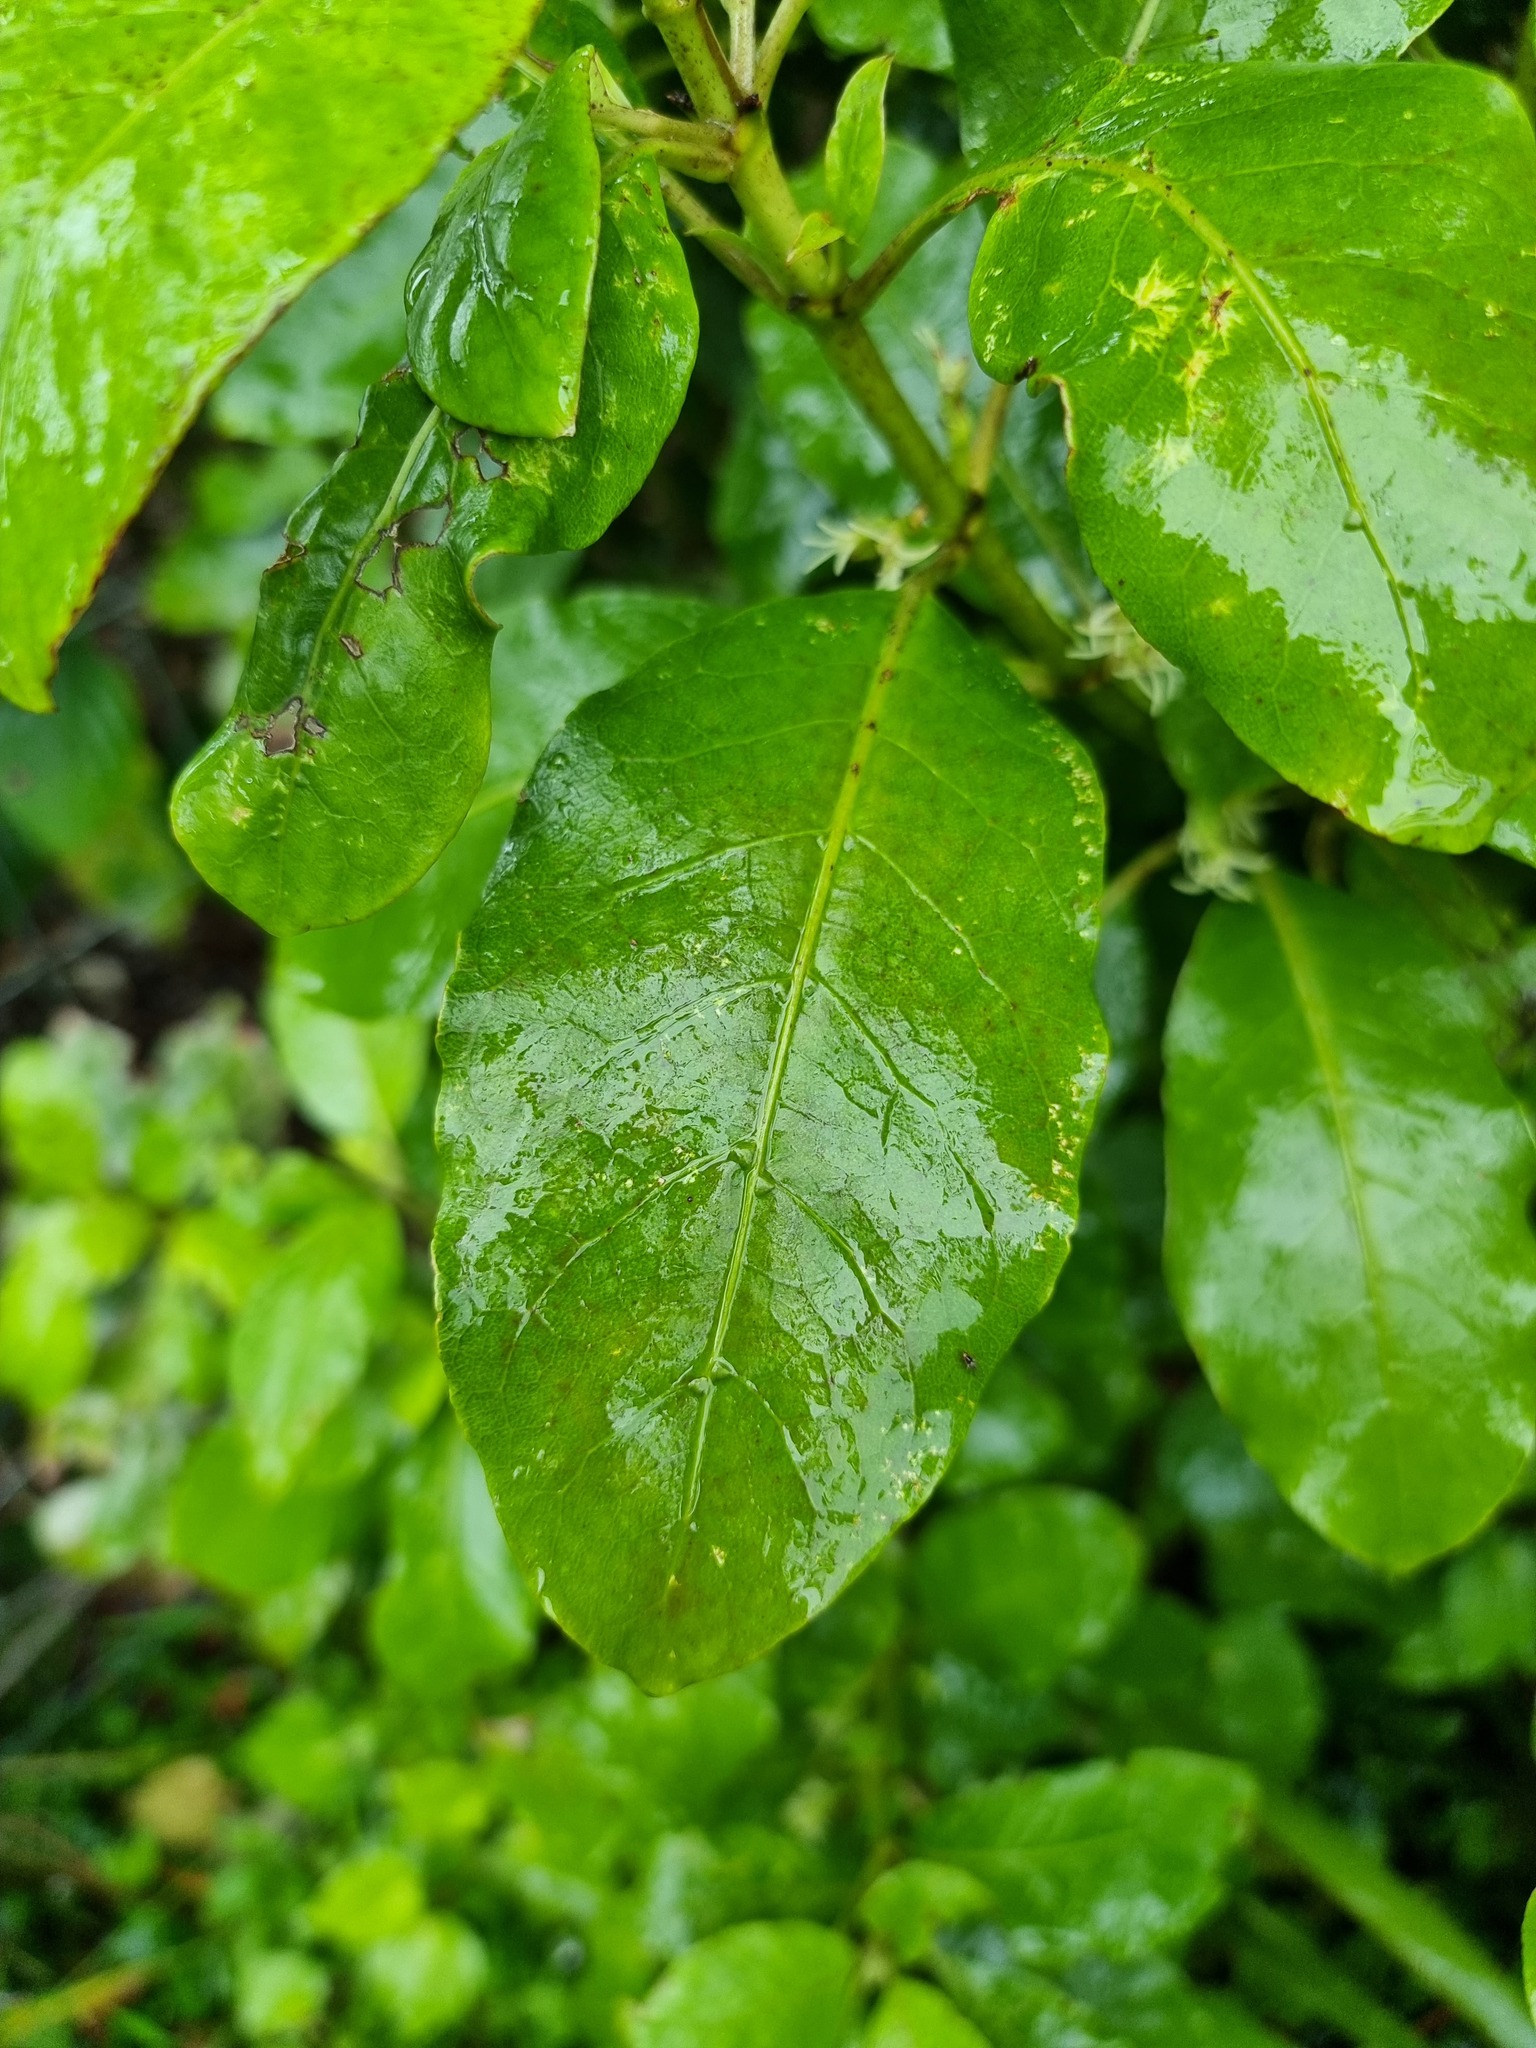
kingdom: Plantae
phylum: Tracheophyta
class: Magnoliopsida
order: Gentianales
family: Rubiaceae
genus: Coprosma
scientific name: Coprosma autumnalis
